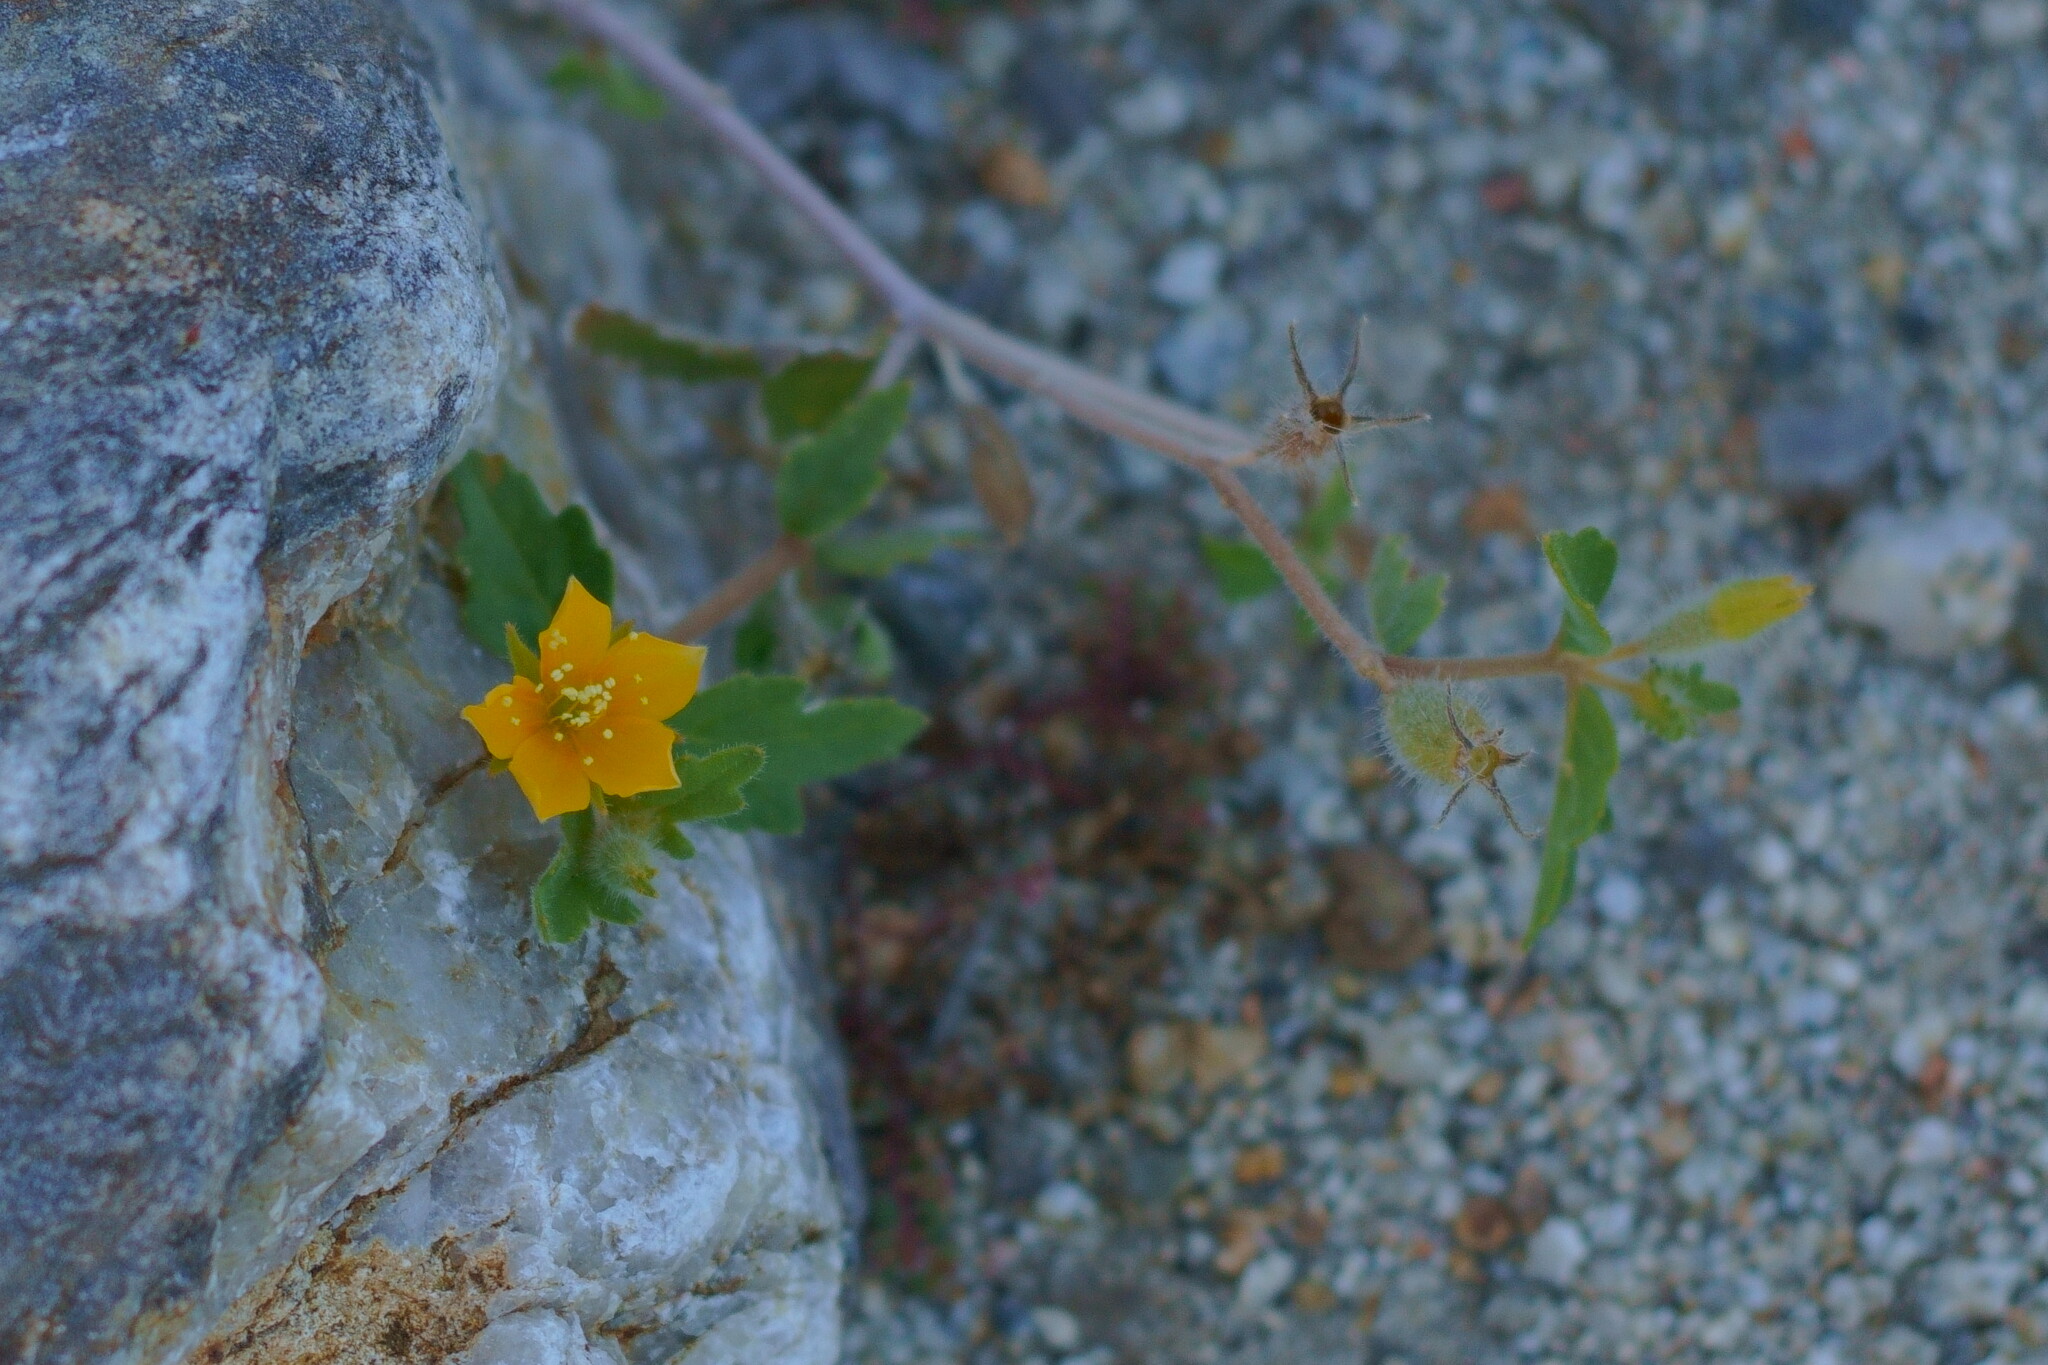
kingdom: Plantae
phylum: Tracheophyta
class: Magnoliopsida
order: Cornales
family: Loasaceae
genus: Mentzelia
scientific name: Mentzelia adhaerens
